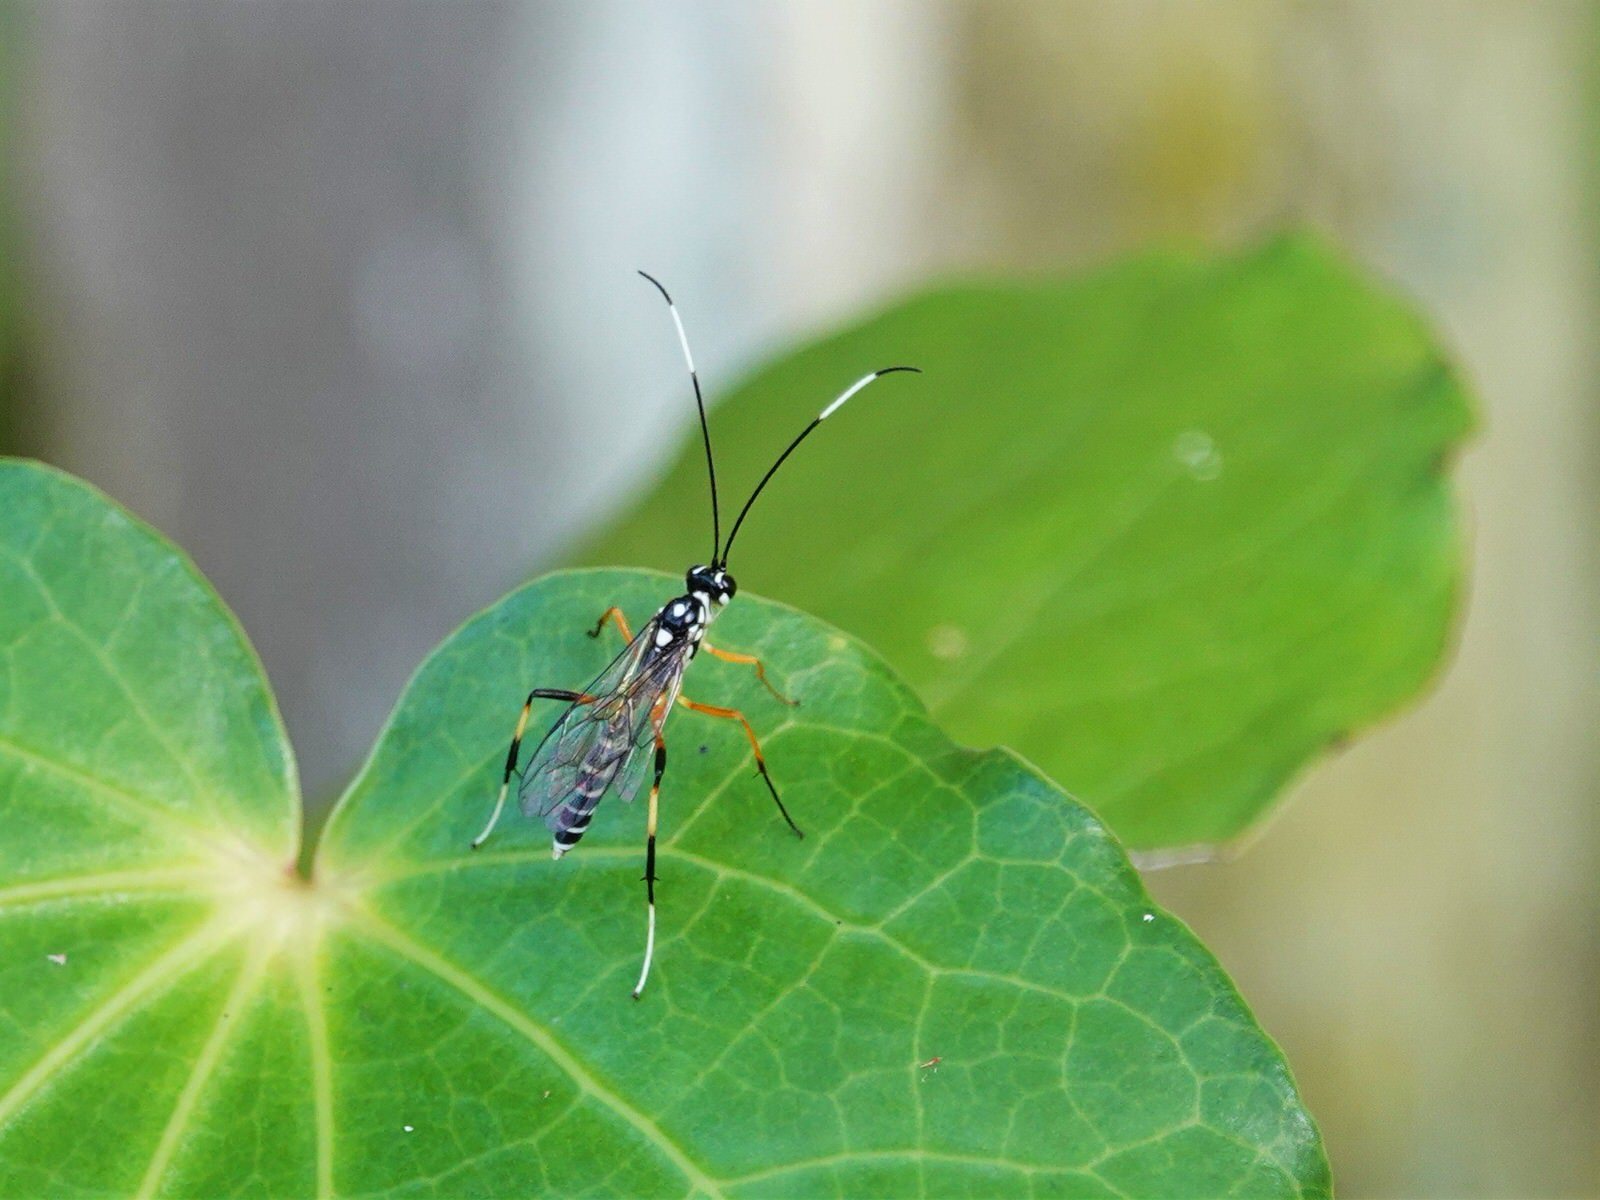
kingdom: Animalia
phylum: Arthropoda
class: Insecta
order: Hymenoptera
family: Ichneumonidae
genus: Xanthocryptus
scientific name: Xanthocryptus novozealandicus
